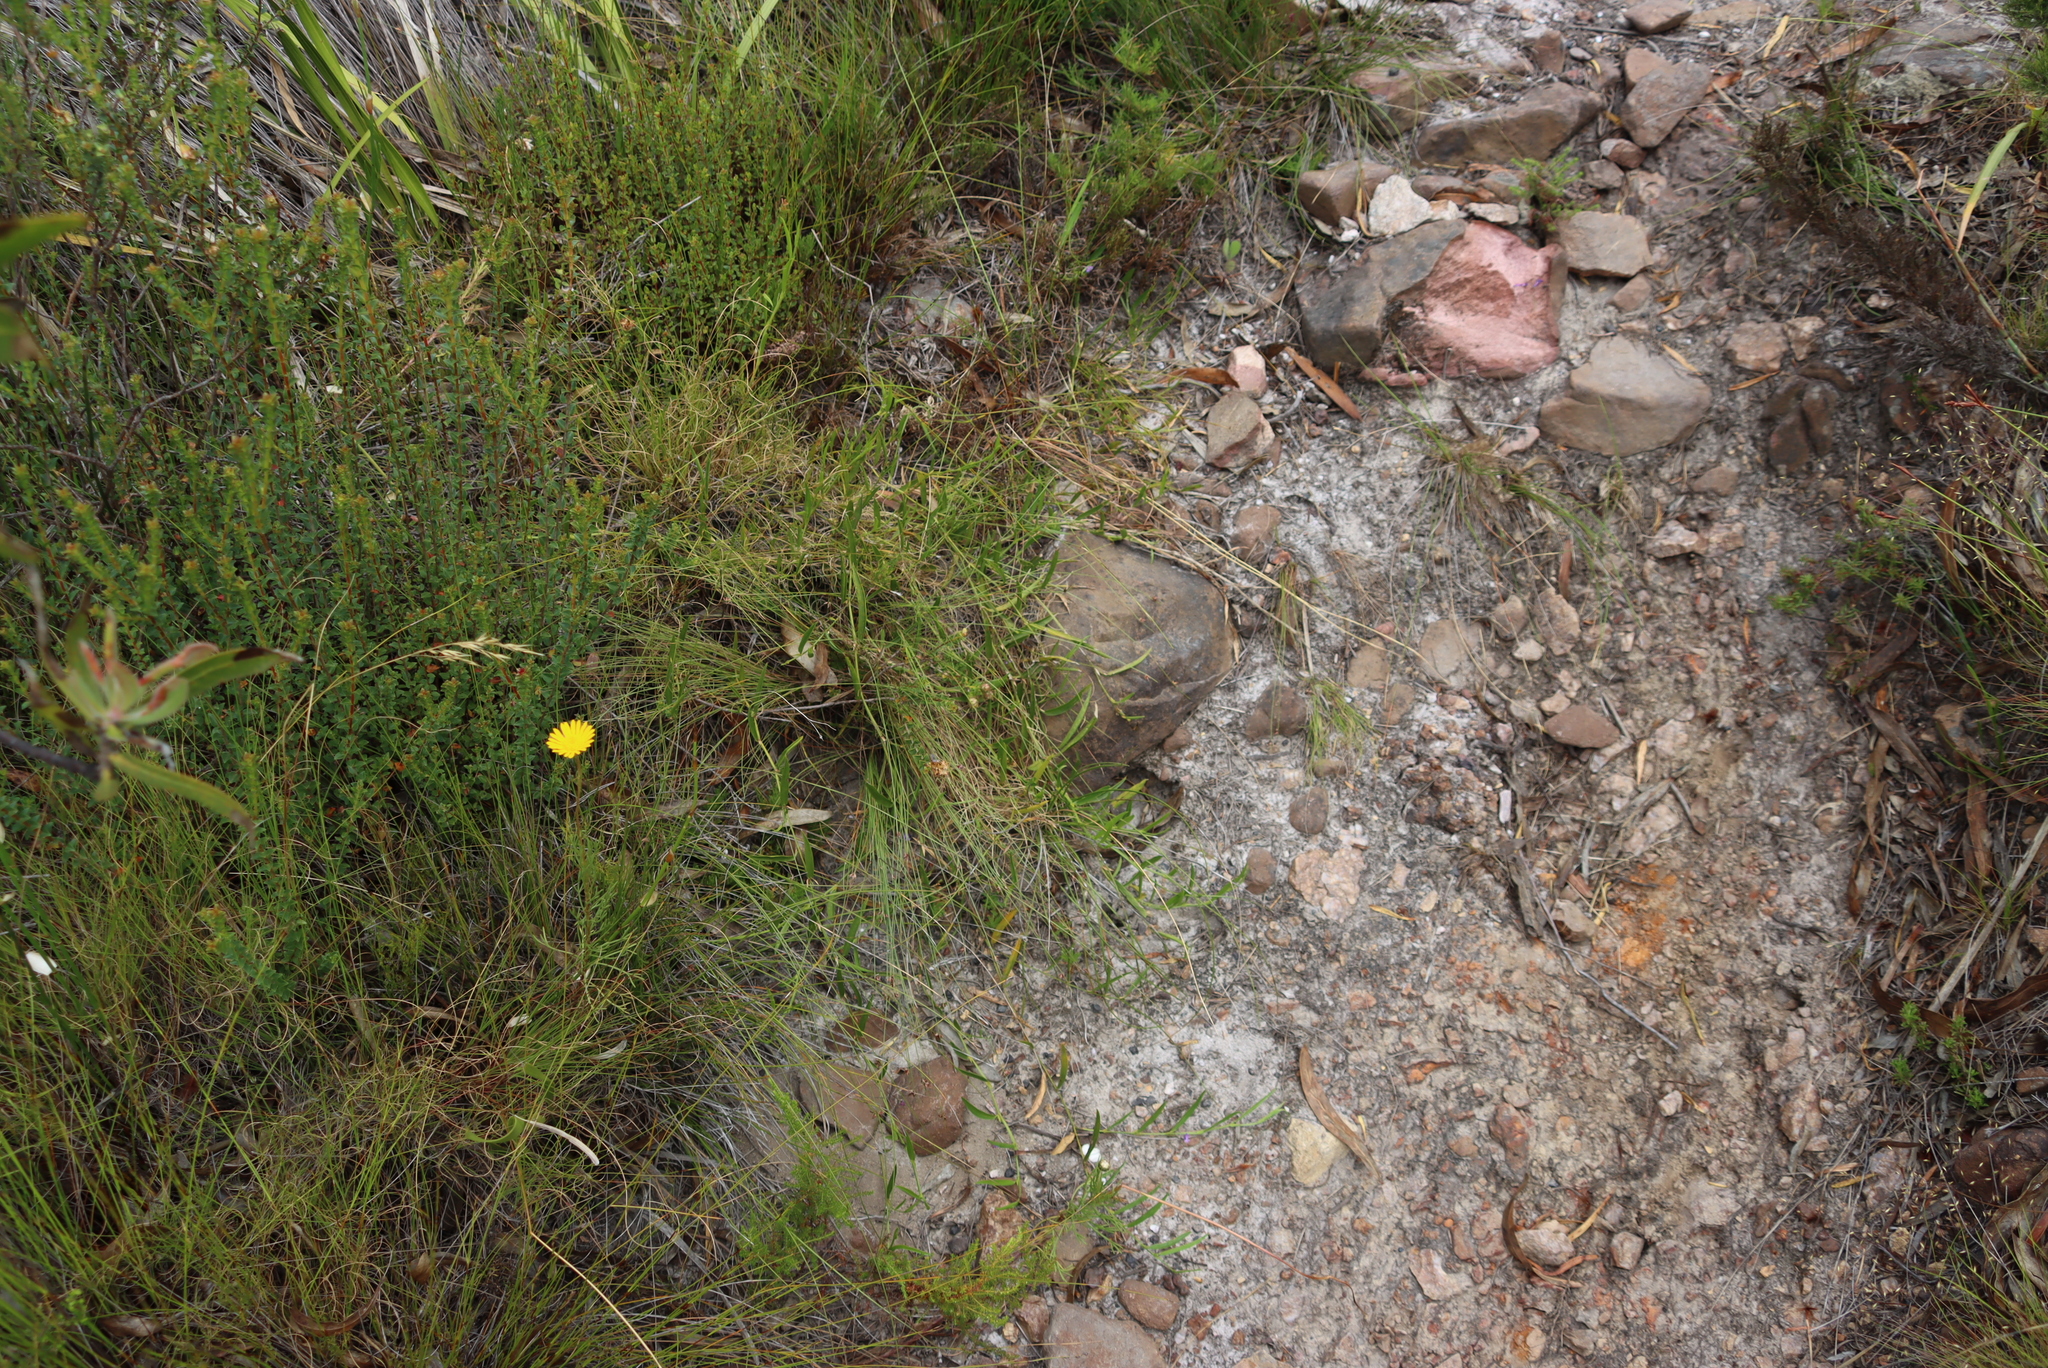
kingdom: Plantae
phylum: Tracheophyta
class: Magnoliopsida
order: Fabales
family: Fabaceae
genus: Psoralea
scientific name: Psoralea laxa
